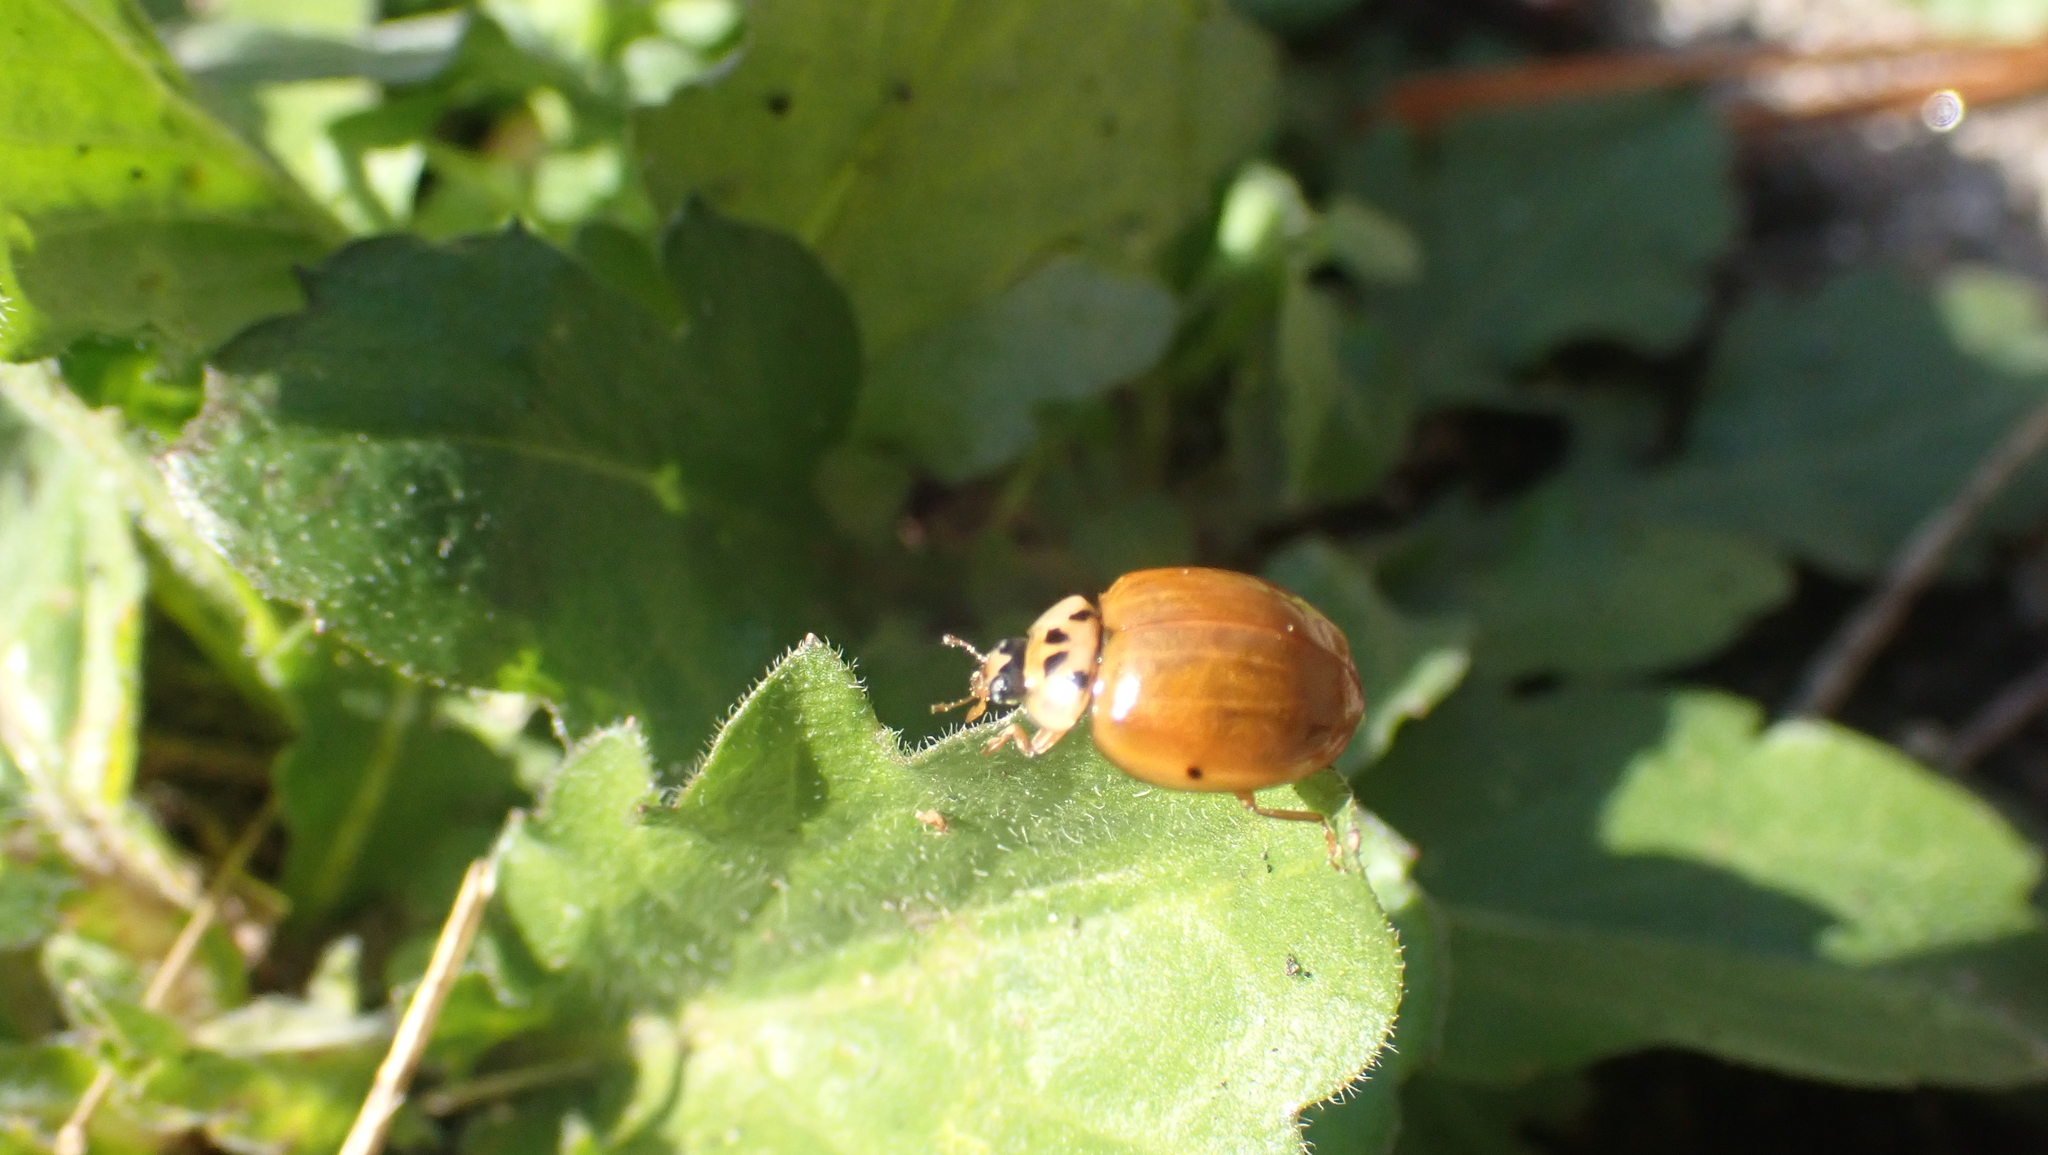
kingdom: Animalia
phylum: Arthropoda
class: Insecta
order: Coleoptera
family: Coccinellidae
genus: Harmonia
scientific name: Harmonia axyridis
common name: Harlequin ladybird
